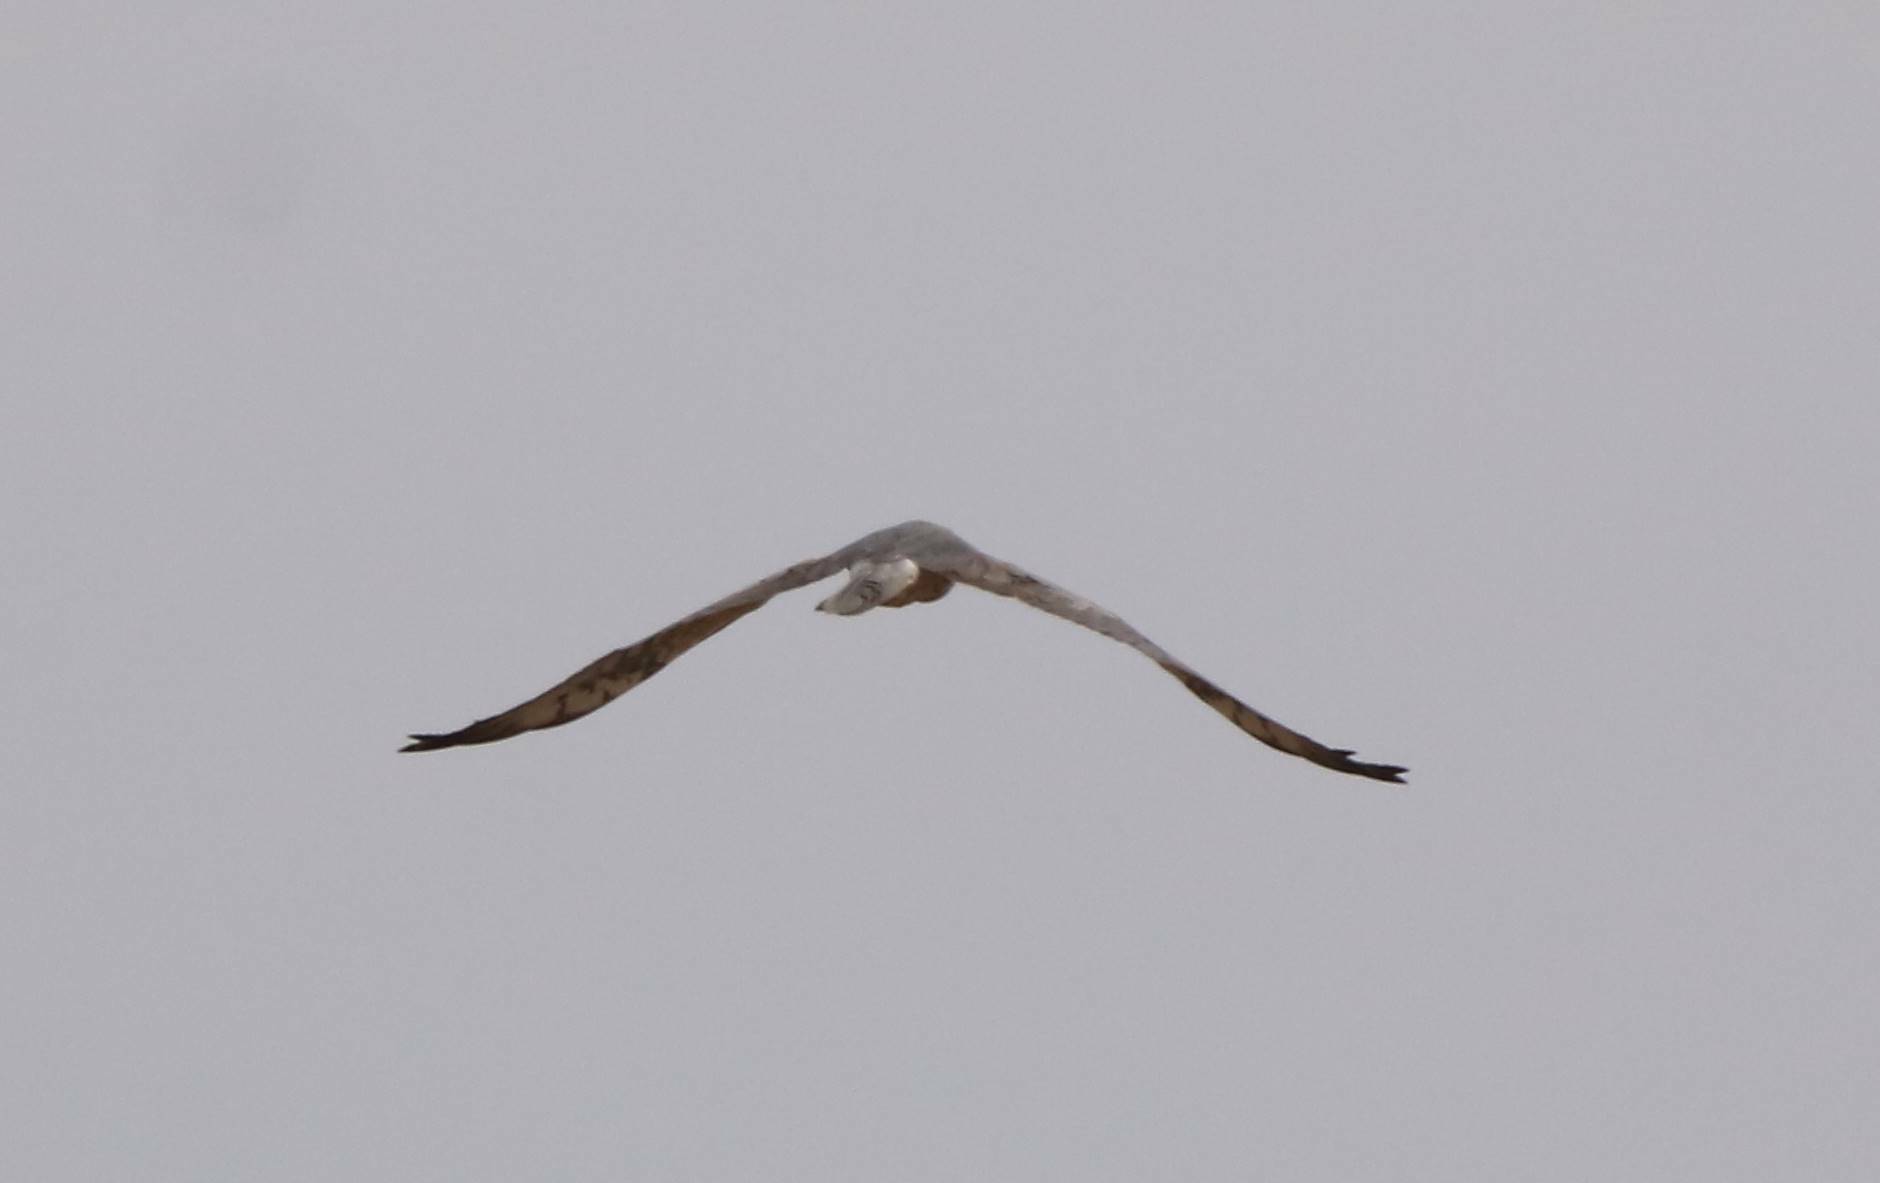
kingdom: Animalia
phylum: Chordata
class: Aves
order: Accipitriformes
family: Accipitridae
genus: Circus
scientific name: Circus pygargus
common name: Montagu's harrier
